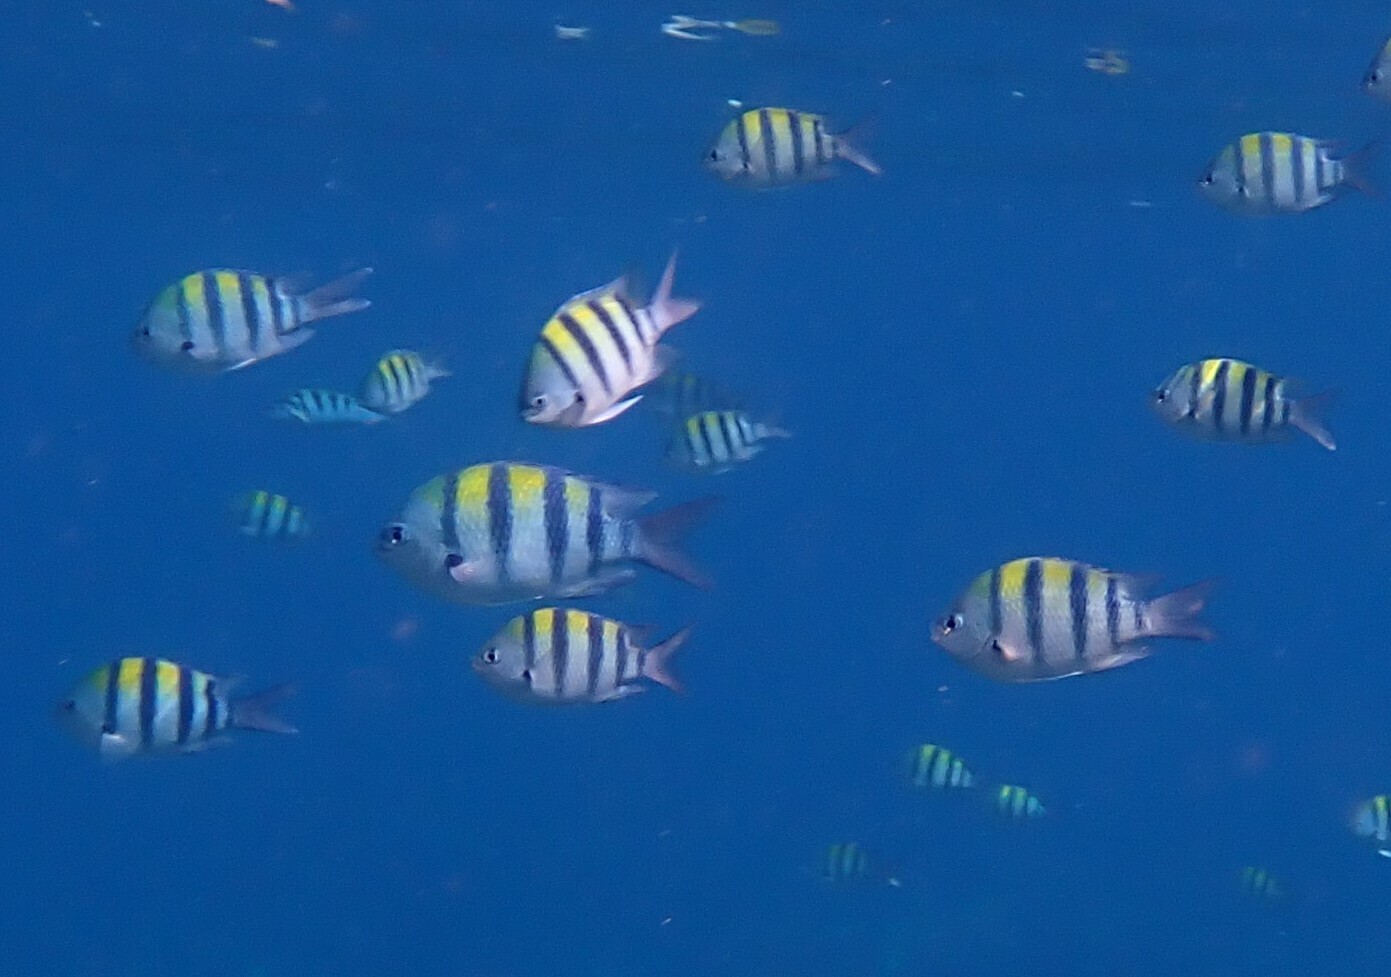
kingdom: Animalia
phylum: Chordata
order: Perciformes
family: Pomacentridae
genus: Abudefduf
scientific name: Abudefduf vaigiensis
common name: Indo-pacific sergeant
